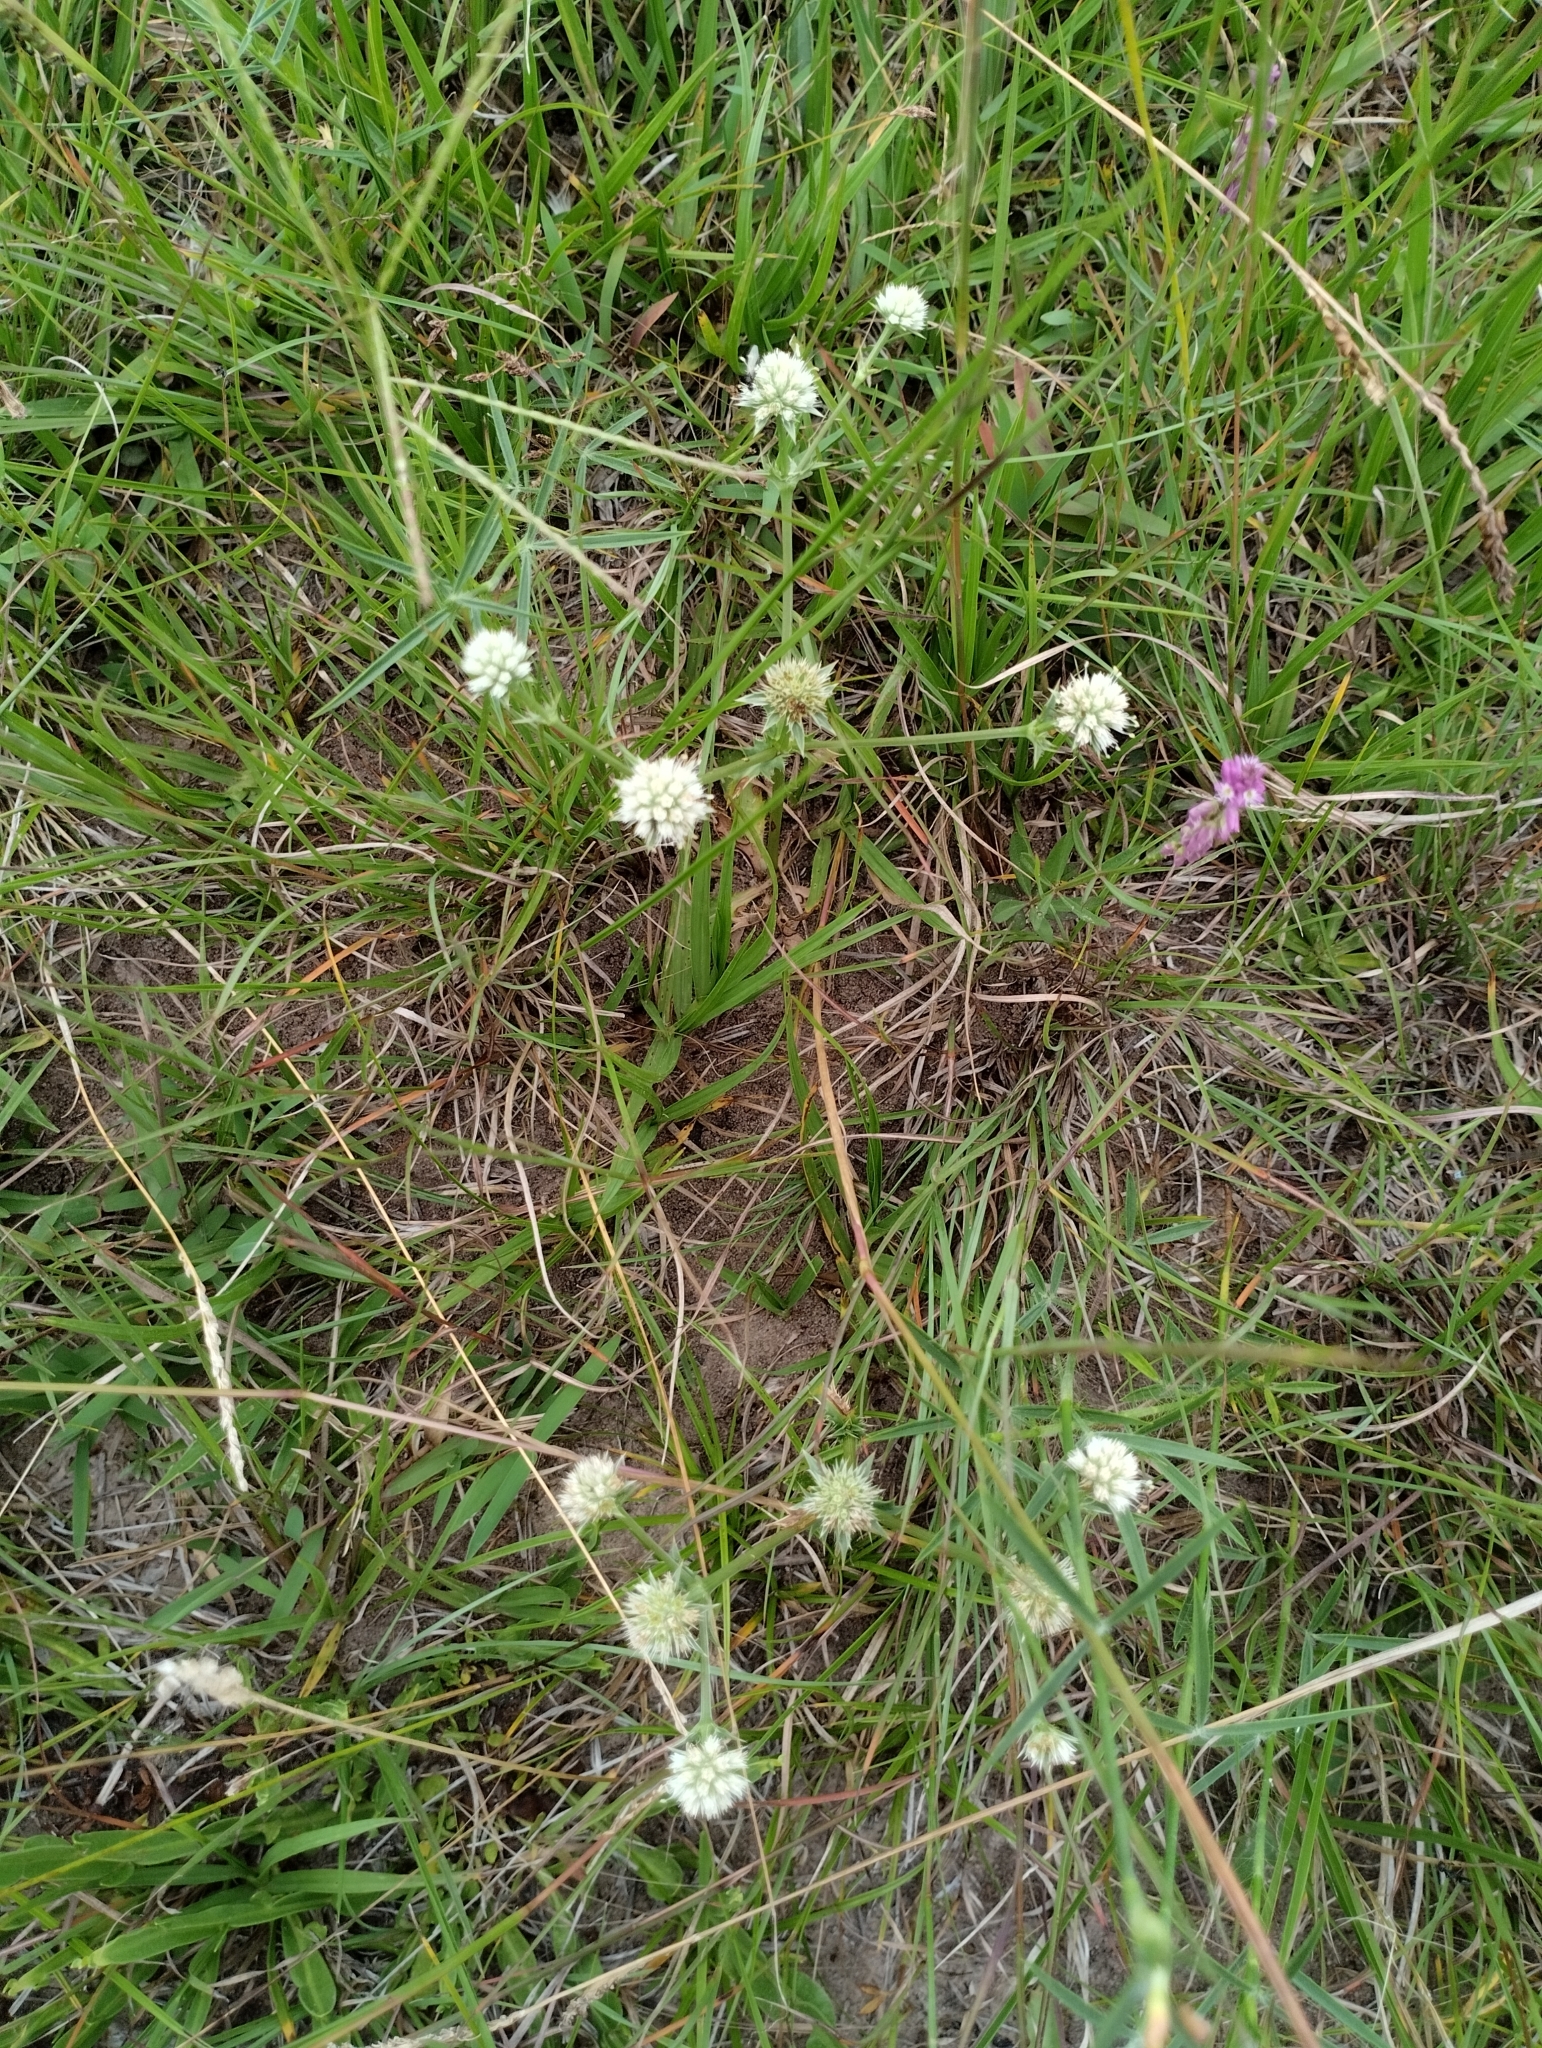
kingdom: Plantae
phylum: Tracheophyta
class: Magnoliopsida
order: Apiales
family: Apiaceae
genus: Eryngium
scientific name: Eryngium nudicaule
